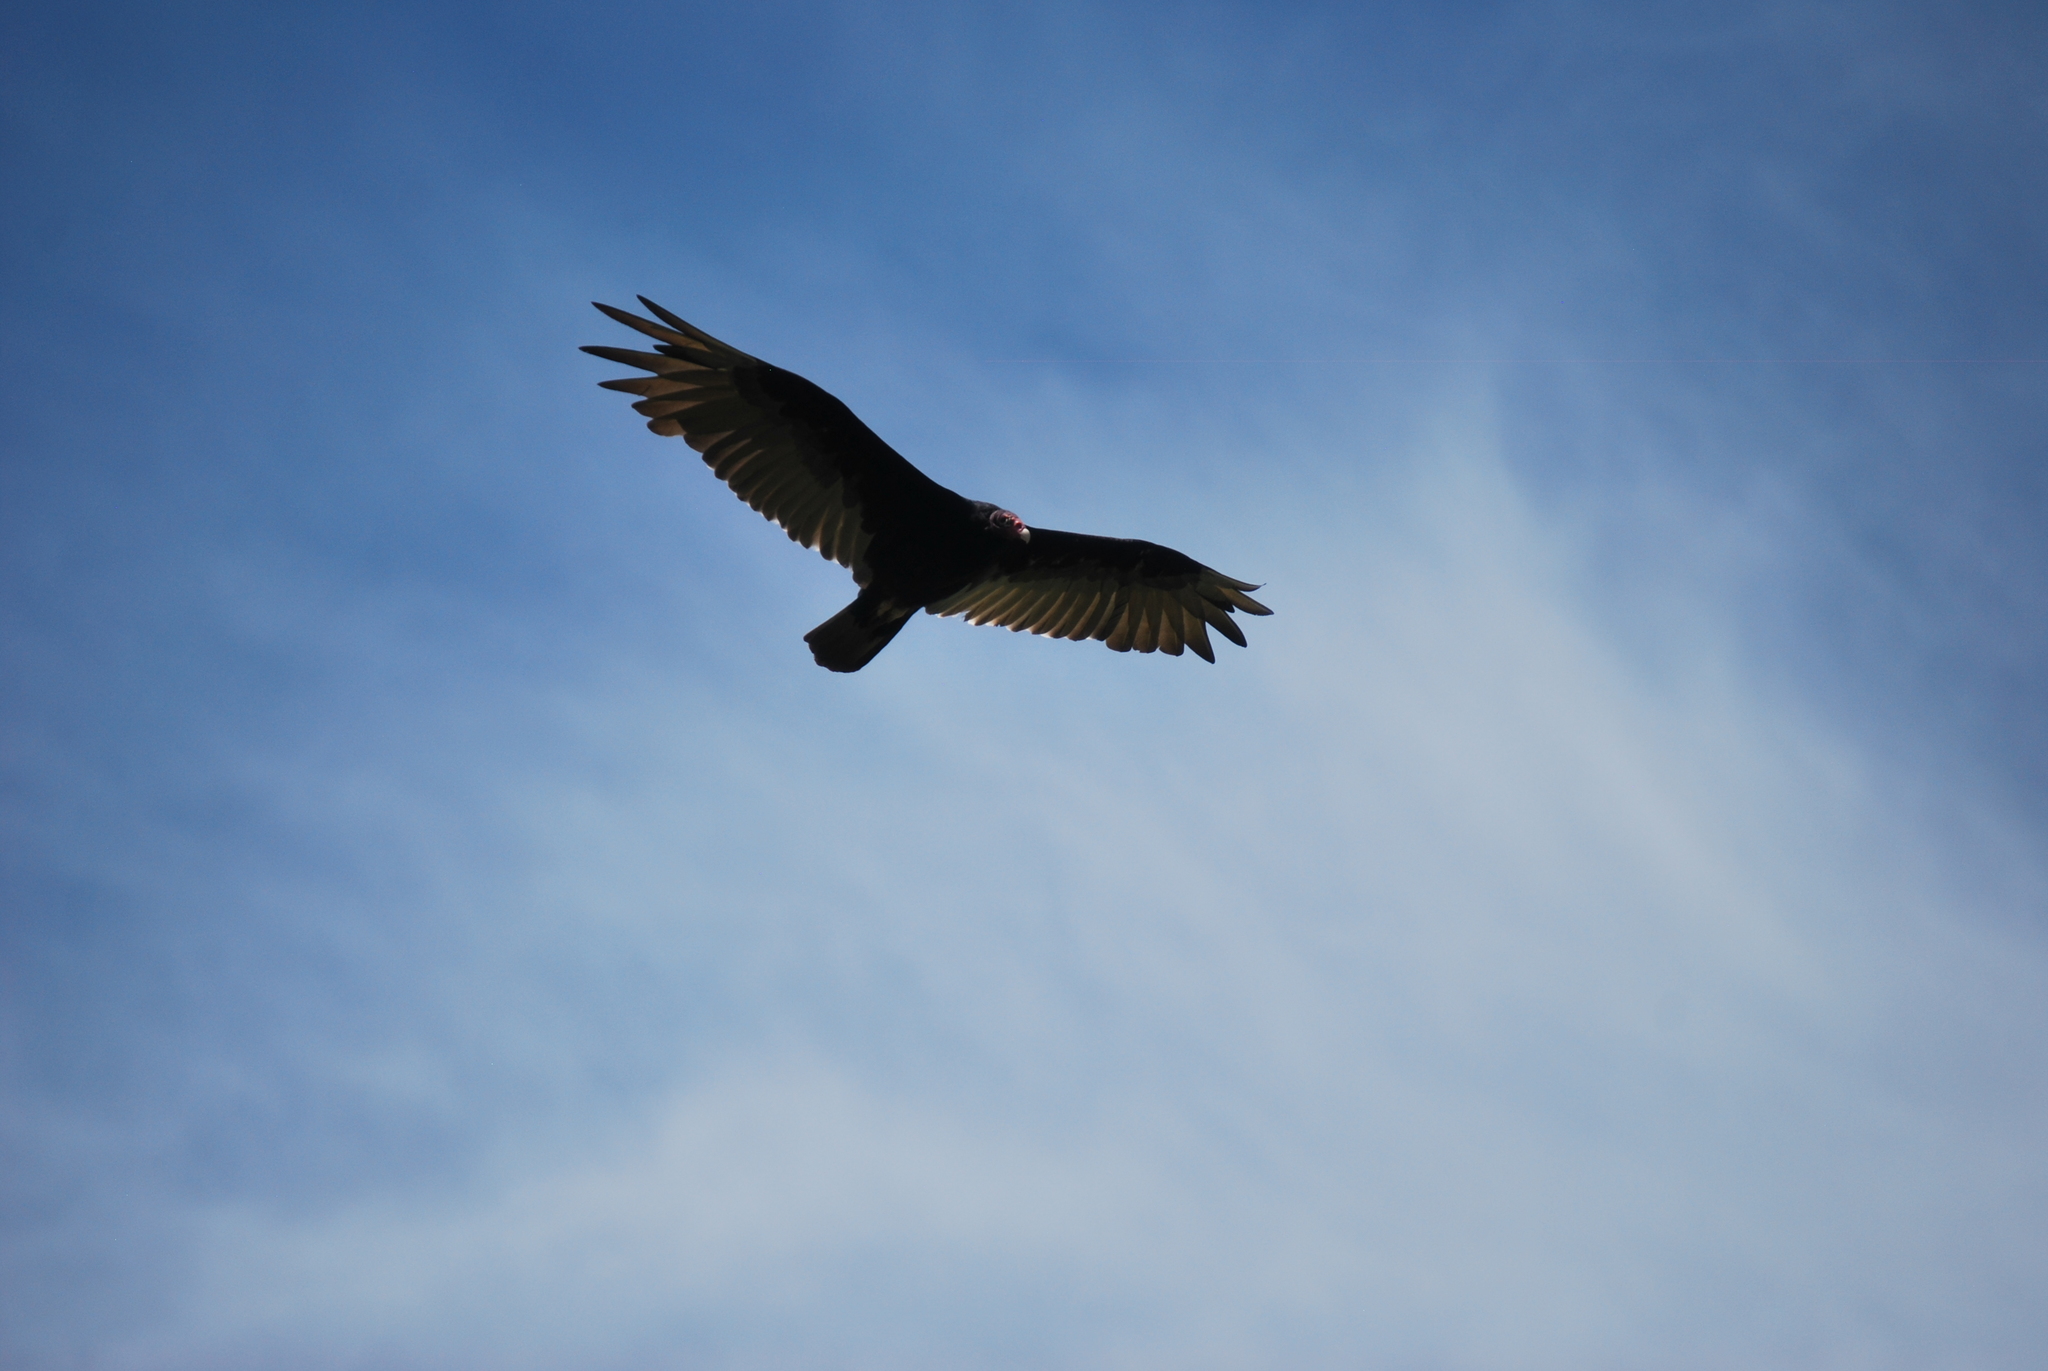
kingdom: Animalia
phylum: Chordata
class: Aves
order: Accipitriformes
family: Cathartidae
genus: Cathartes
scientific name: Cathartes aura
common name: Turkey vulture
